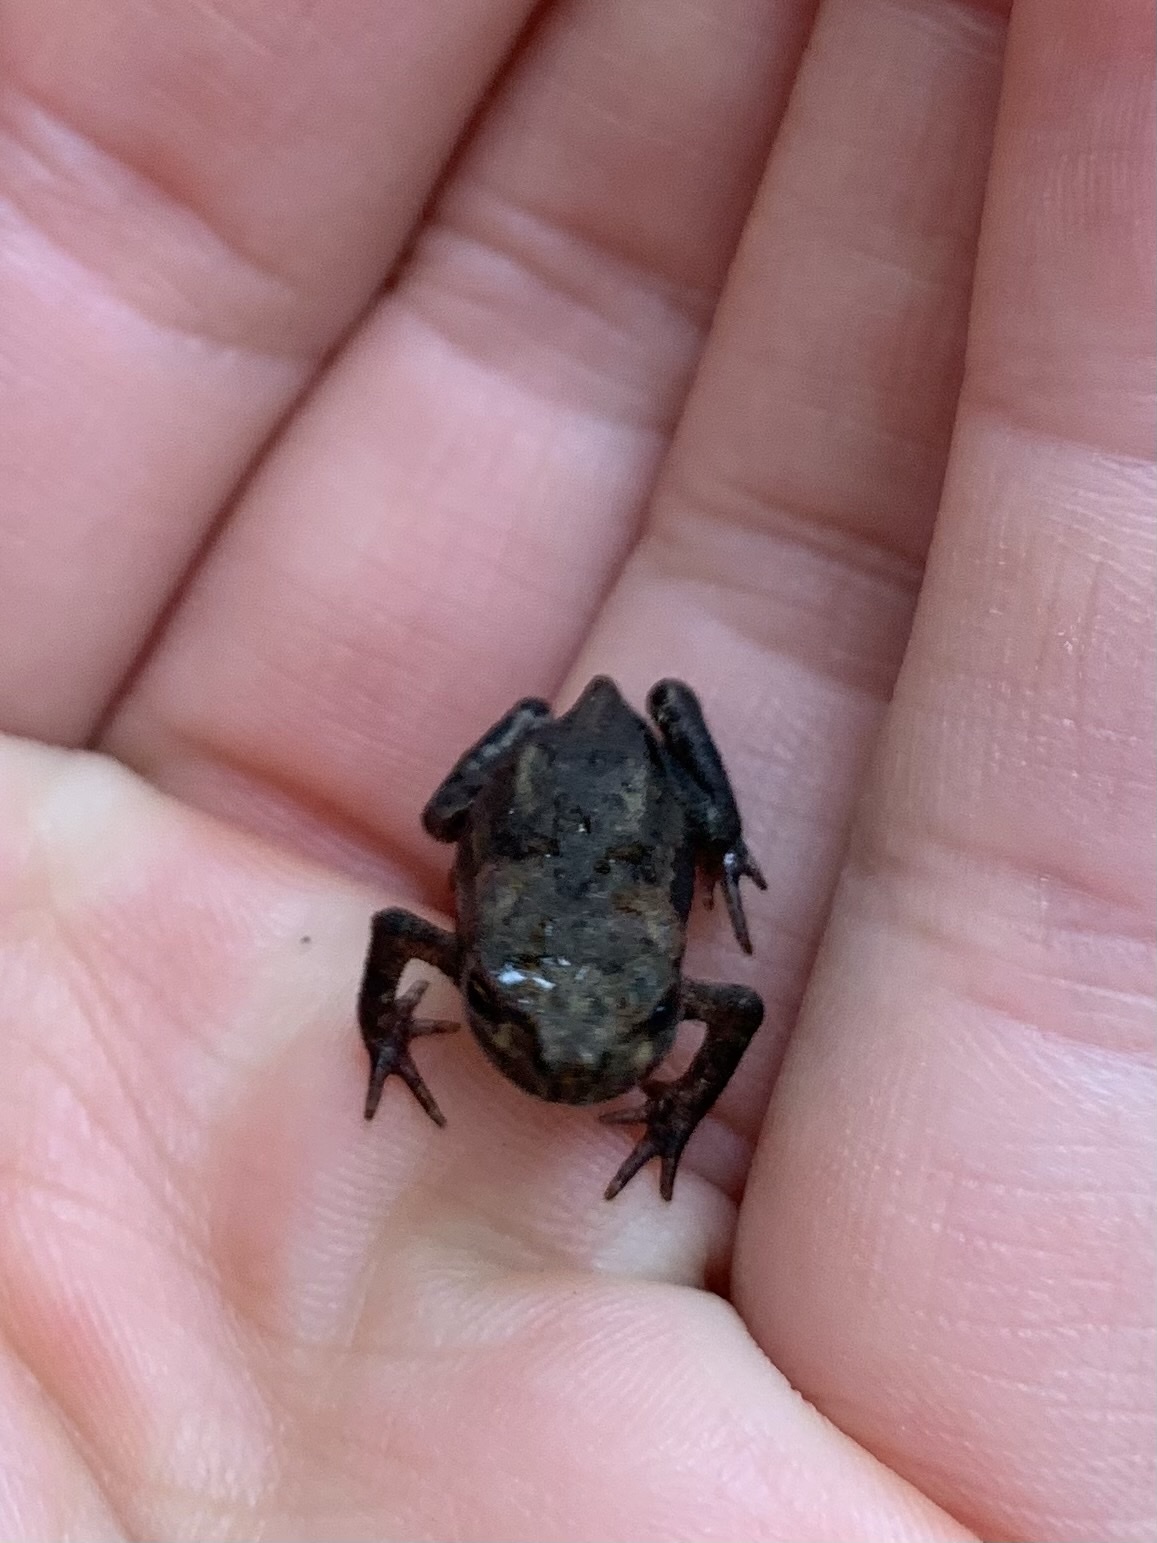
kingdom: Animalia
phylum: Chordata
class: Amphibia
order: Anura
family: Bufonidae
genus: Bufo
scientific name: Bufo bufo
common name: Common toad
